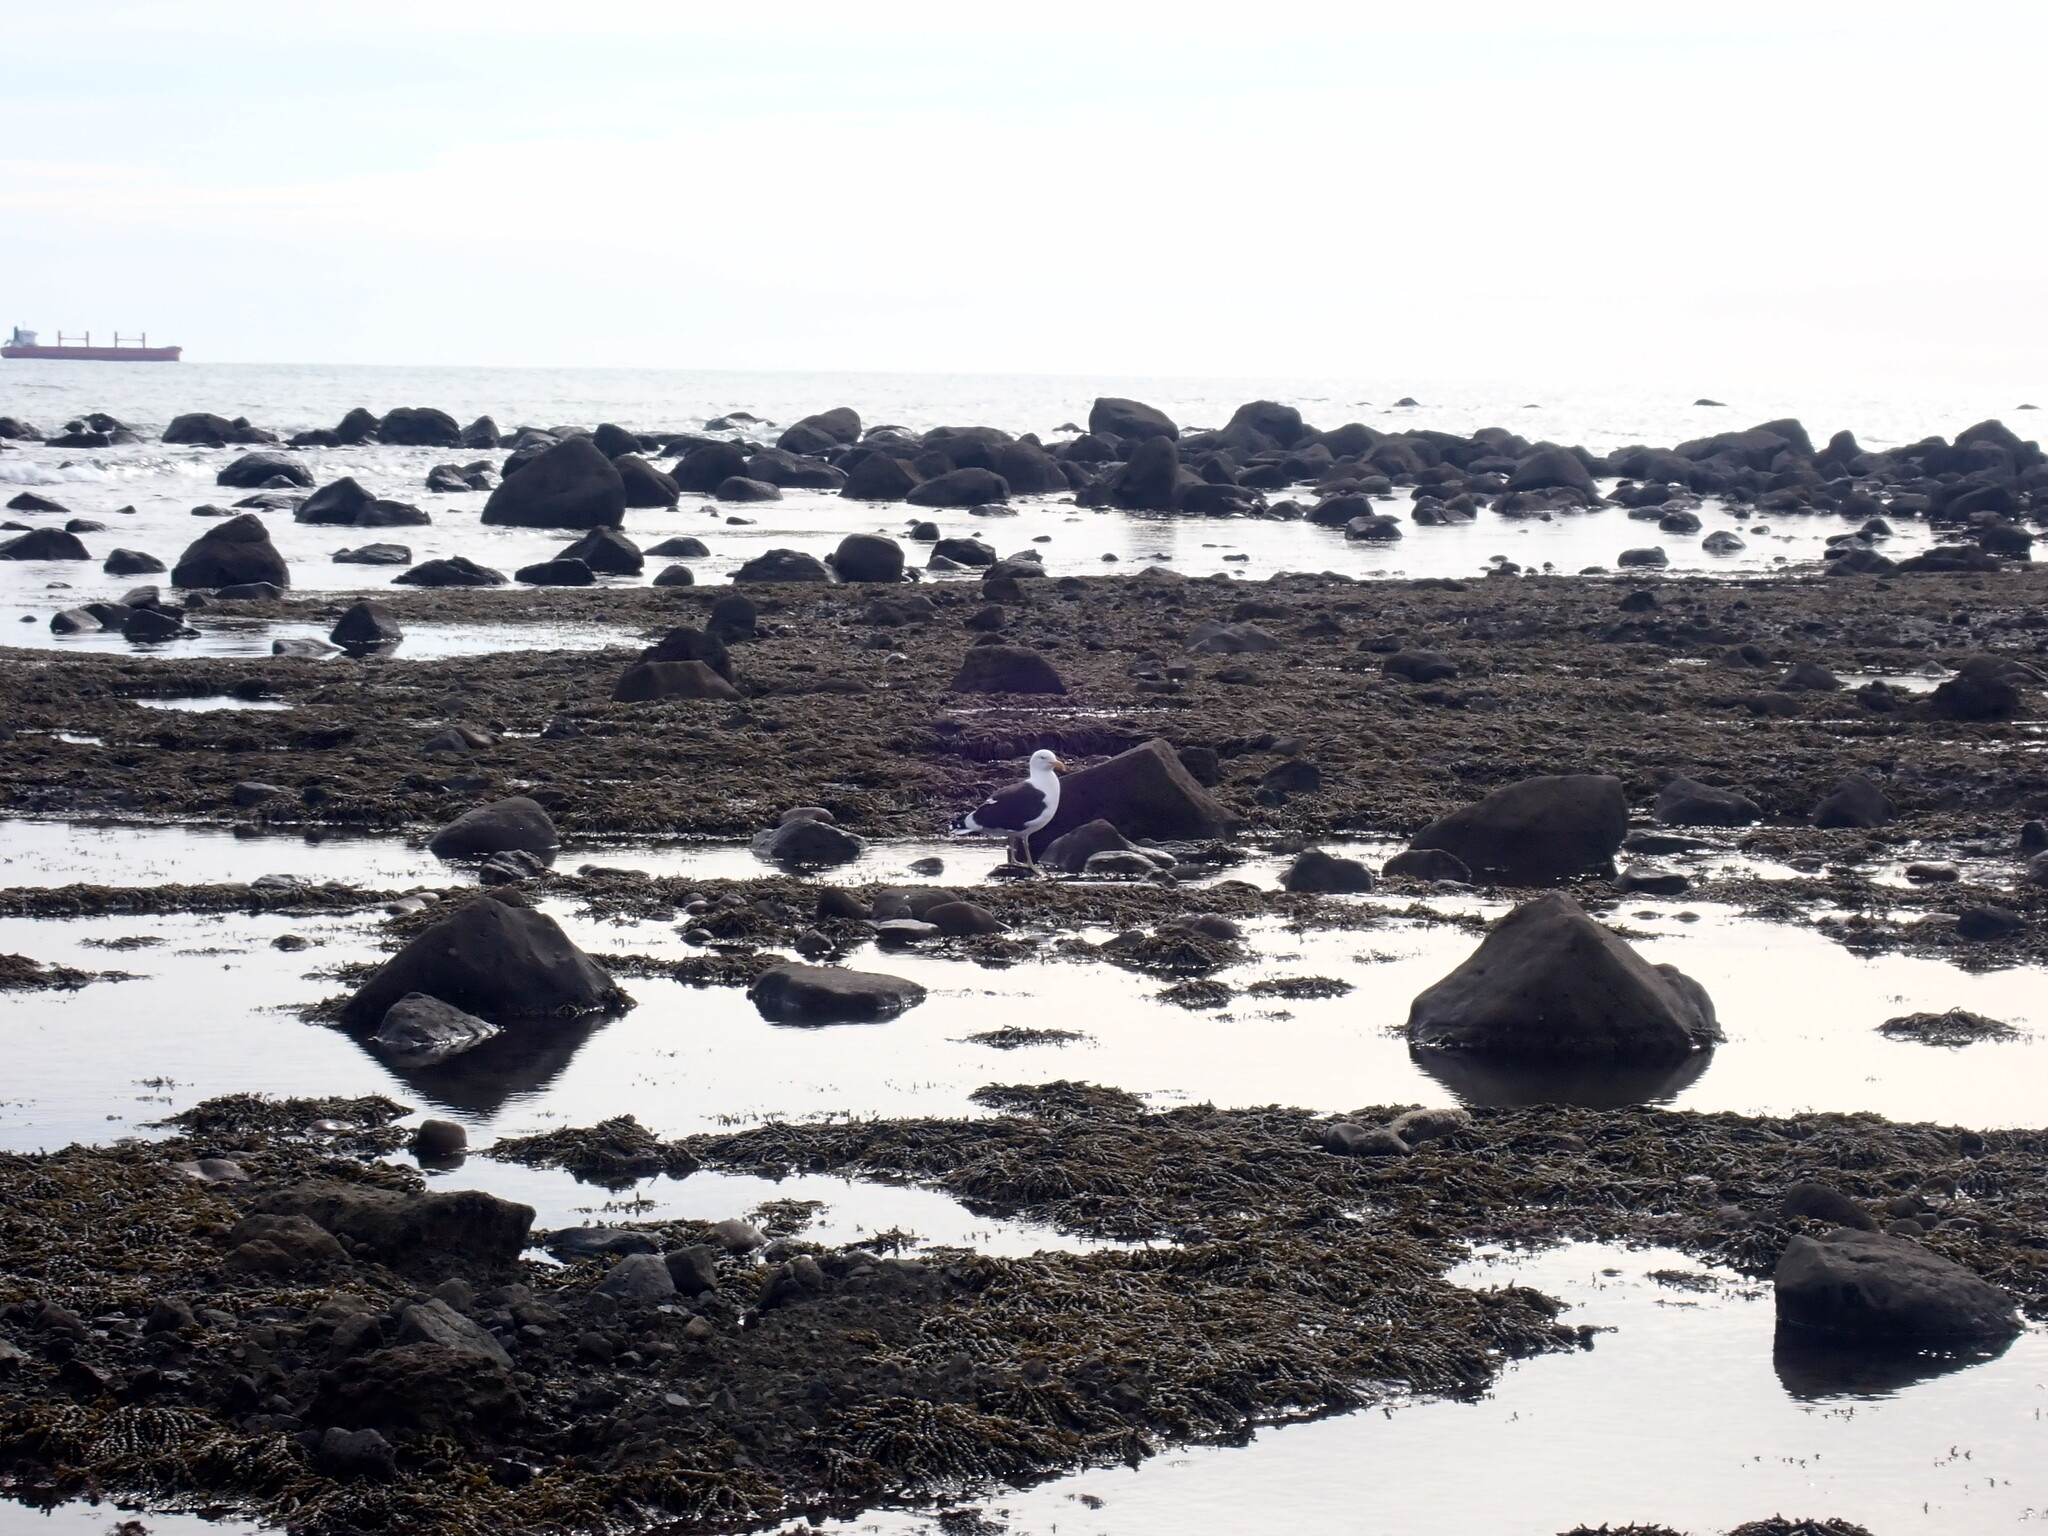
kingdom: Animalia
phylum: Chordata
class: Aves
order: Charadriiformes
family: Laridae
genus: Larus
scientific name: Larus dominicanus
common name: Kelp gull
